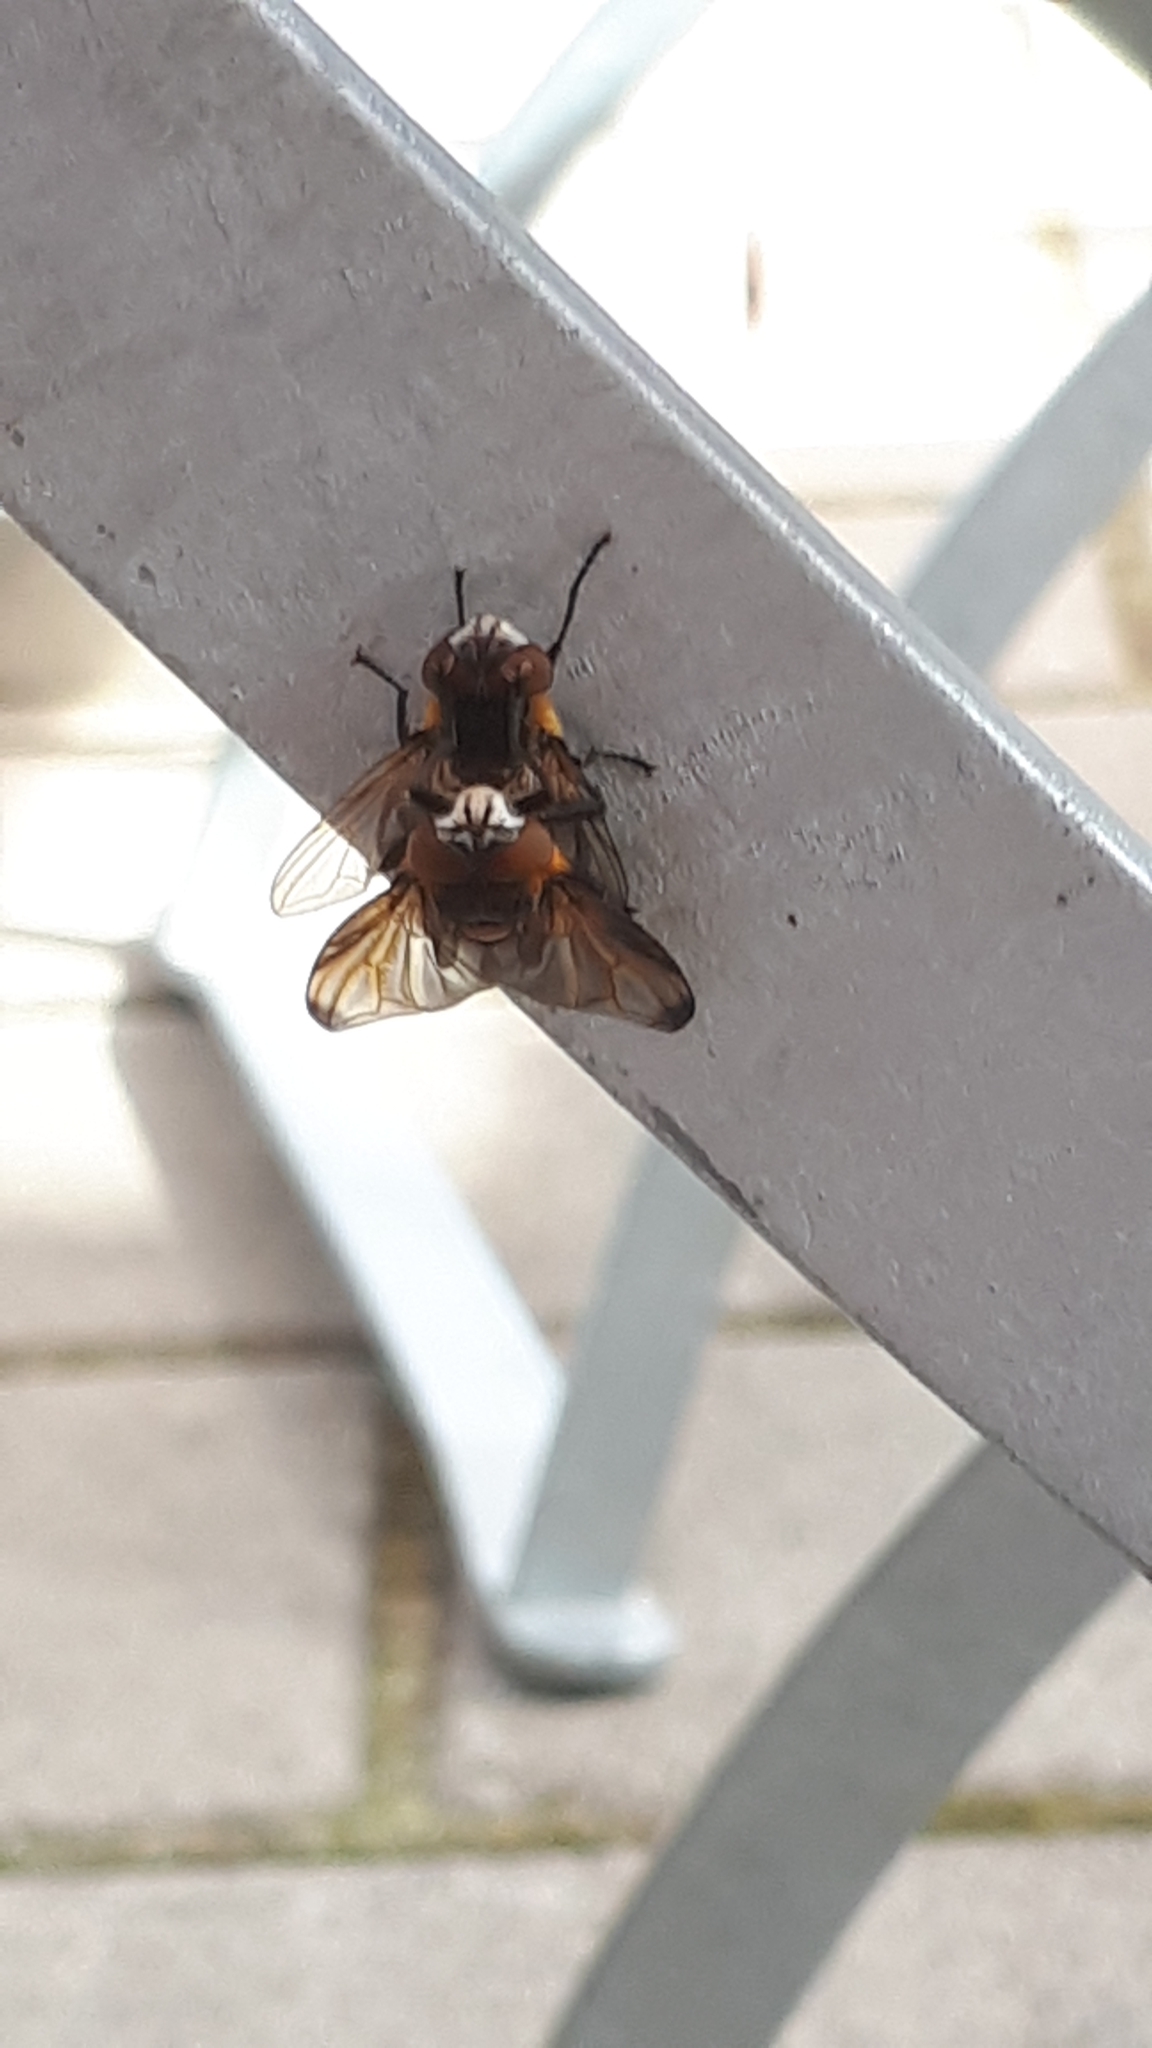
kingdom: Animalia
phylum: Arthropoda
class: Insecta
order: Diptera
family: Tachinidae
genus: Phasia
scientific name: Phasia hemiptera
